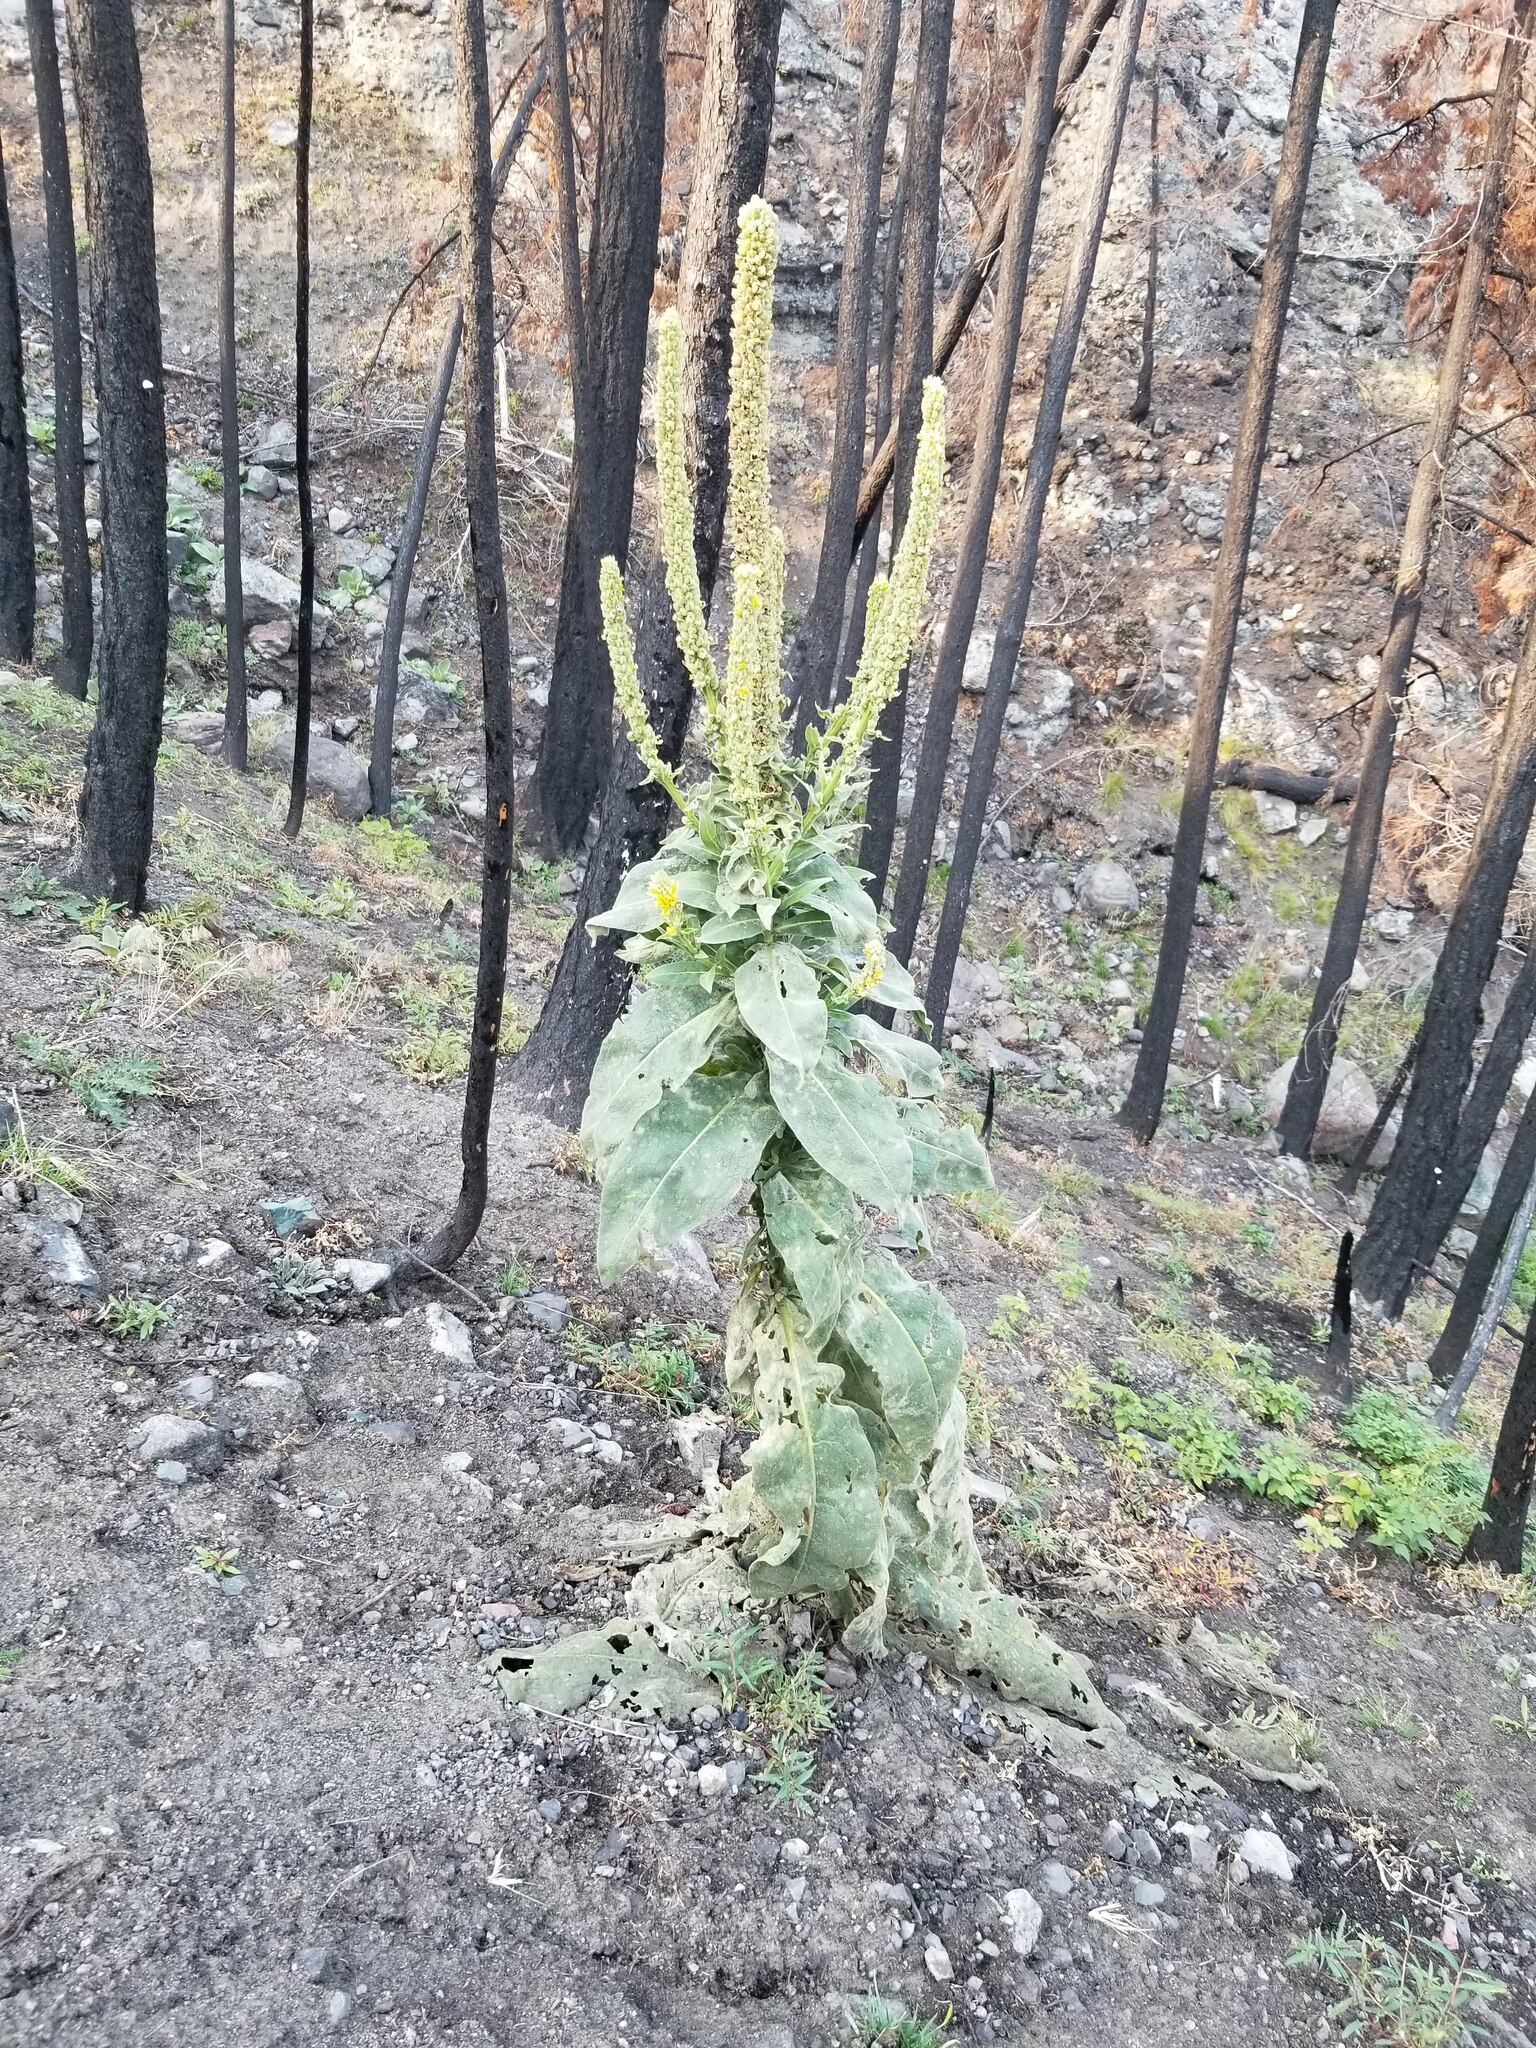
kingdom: Plantae
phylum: Tracheophyta
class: Magnoliopsida
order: Lamiales
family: Scrophulariaceae
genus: Verbascum
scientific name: Verbascum thapsus
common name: Common mullein
